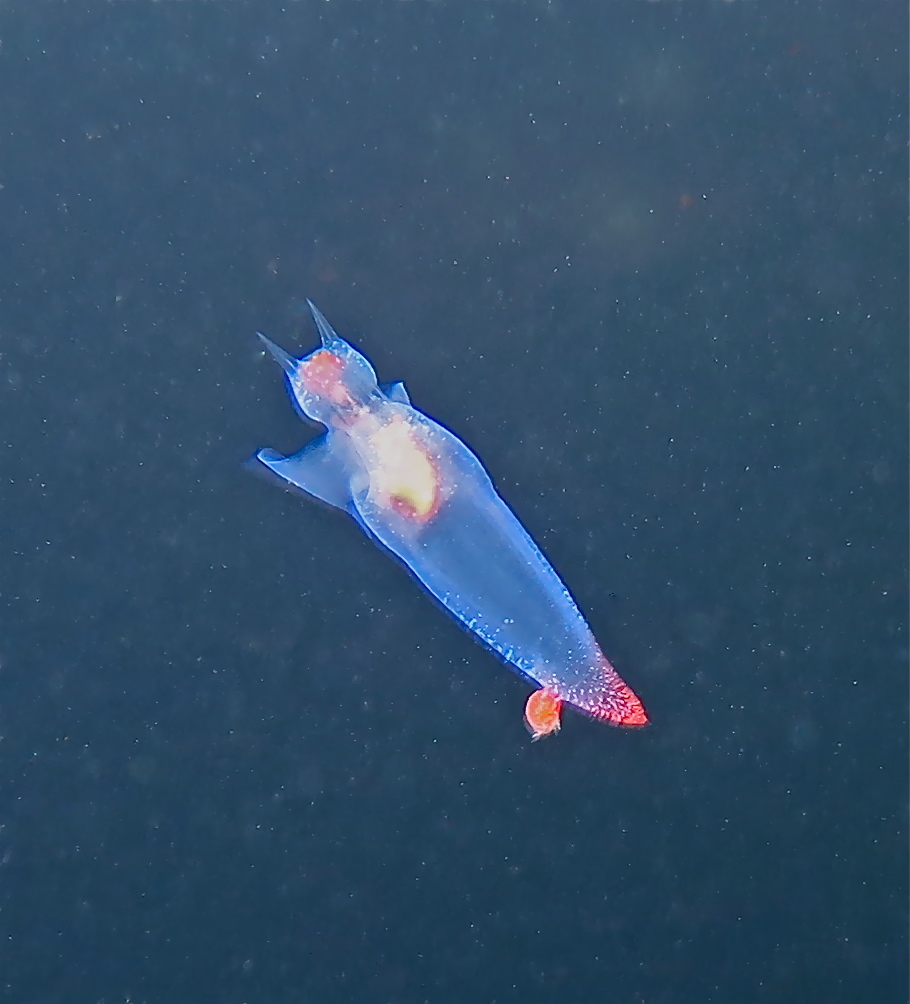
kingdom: Animalia
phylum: Mollusca
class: Gastropoda
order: Pteropoda
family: Clionidae
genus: Clione
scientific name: Clione limacina
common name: Common clione
